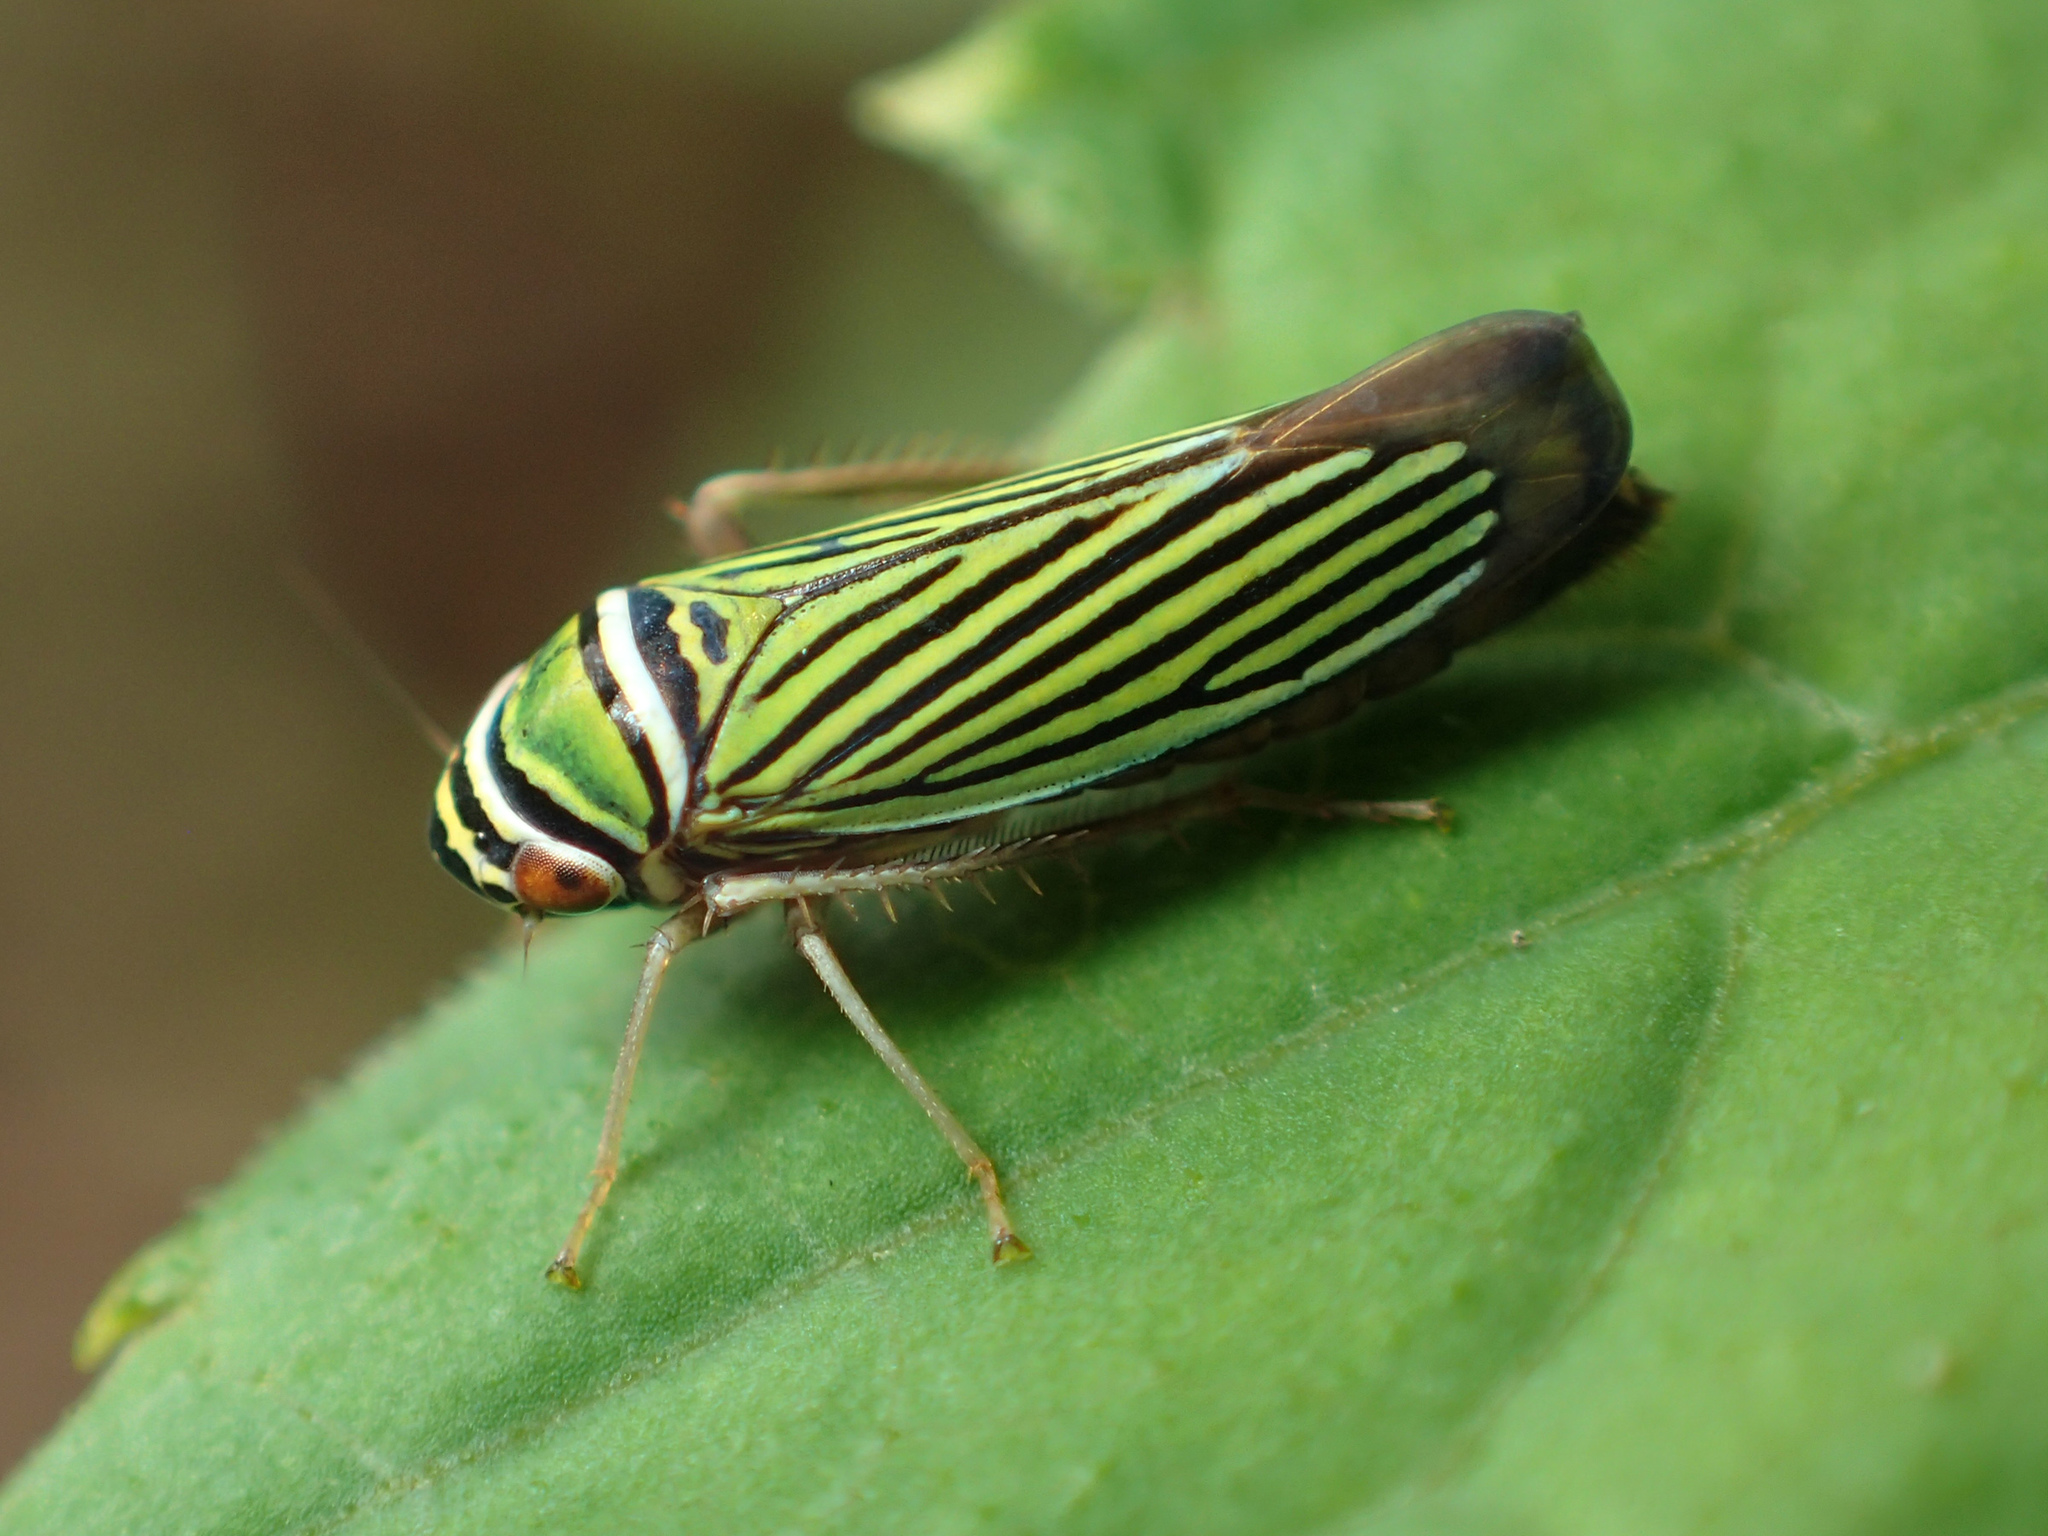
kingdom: Animalia
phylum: Arthropoda
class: Insecta
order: Hemiptera
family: Cicadellidae
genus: Tylozygus
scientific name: Tylozygus bifidus
